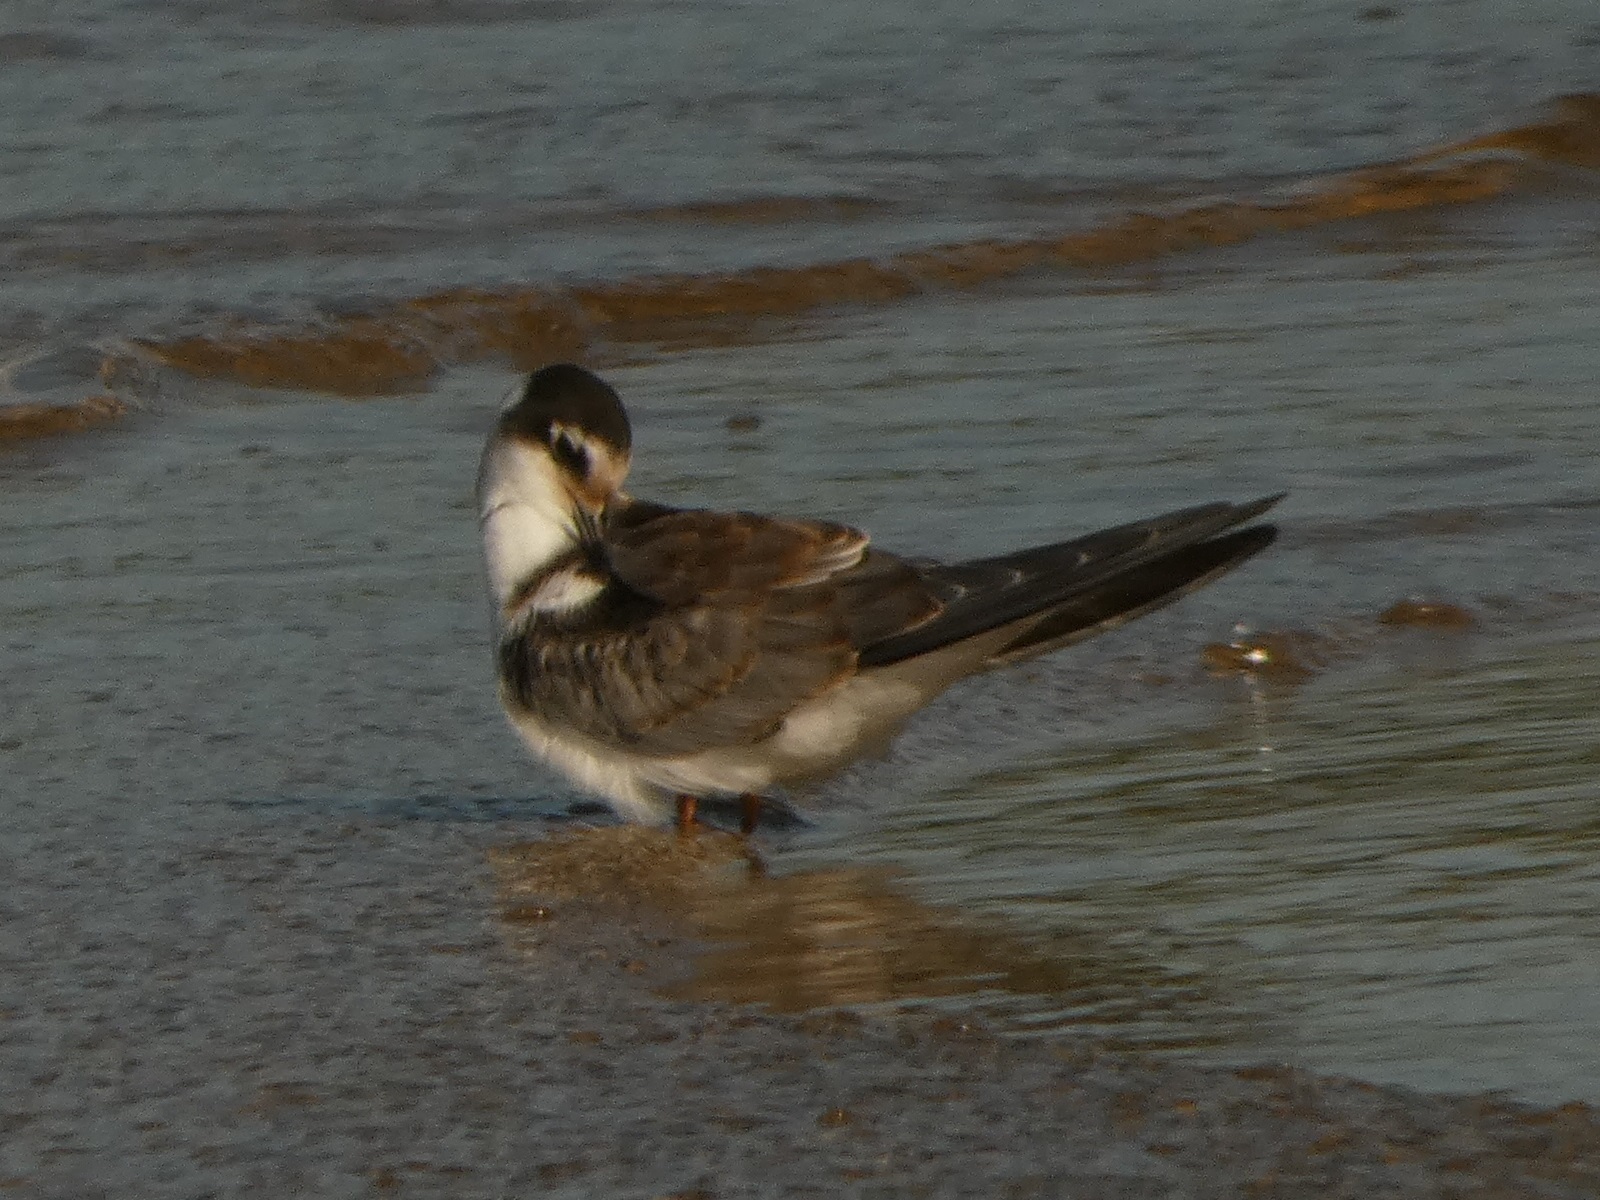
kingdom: Animalia
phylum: Chordata
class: Aves
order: Charadriiformes
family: Laridae
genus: Chlidonias
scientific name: Chlidonias niger
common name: Black tern
